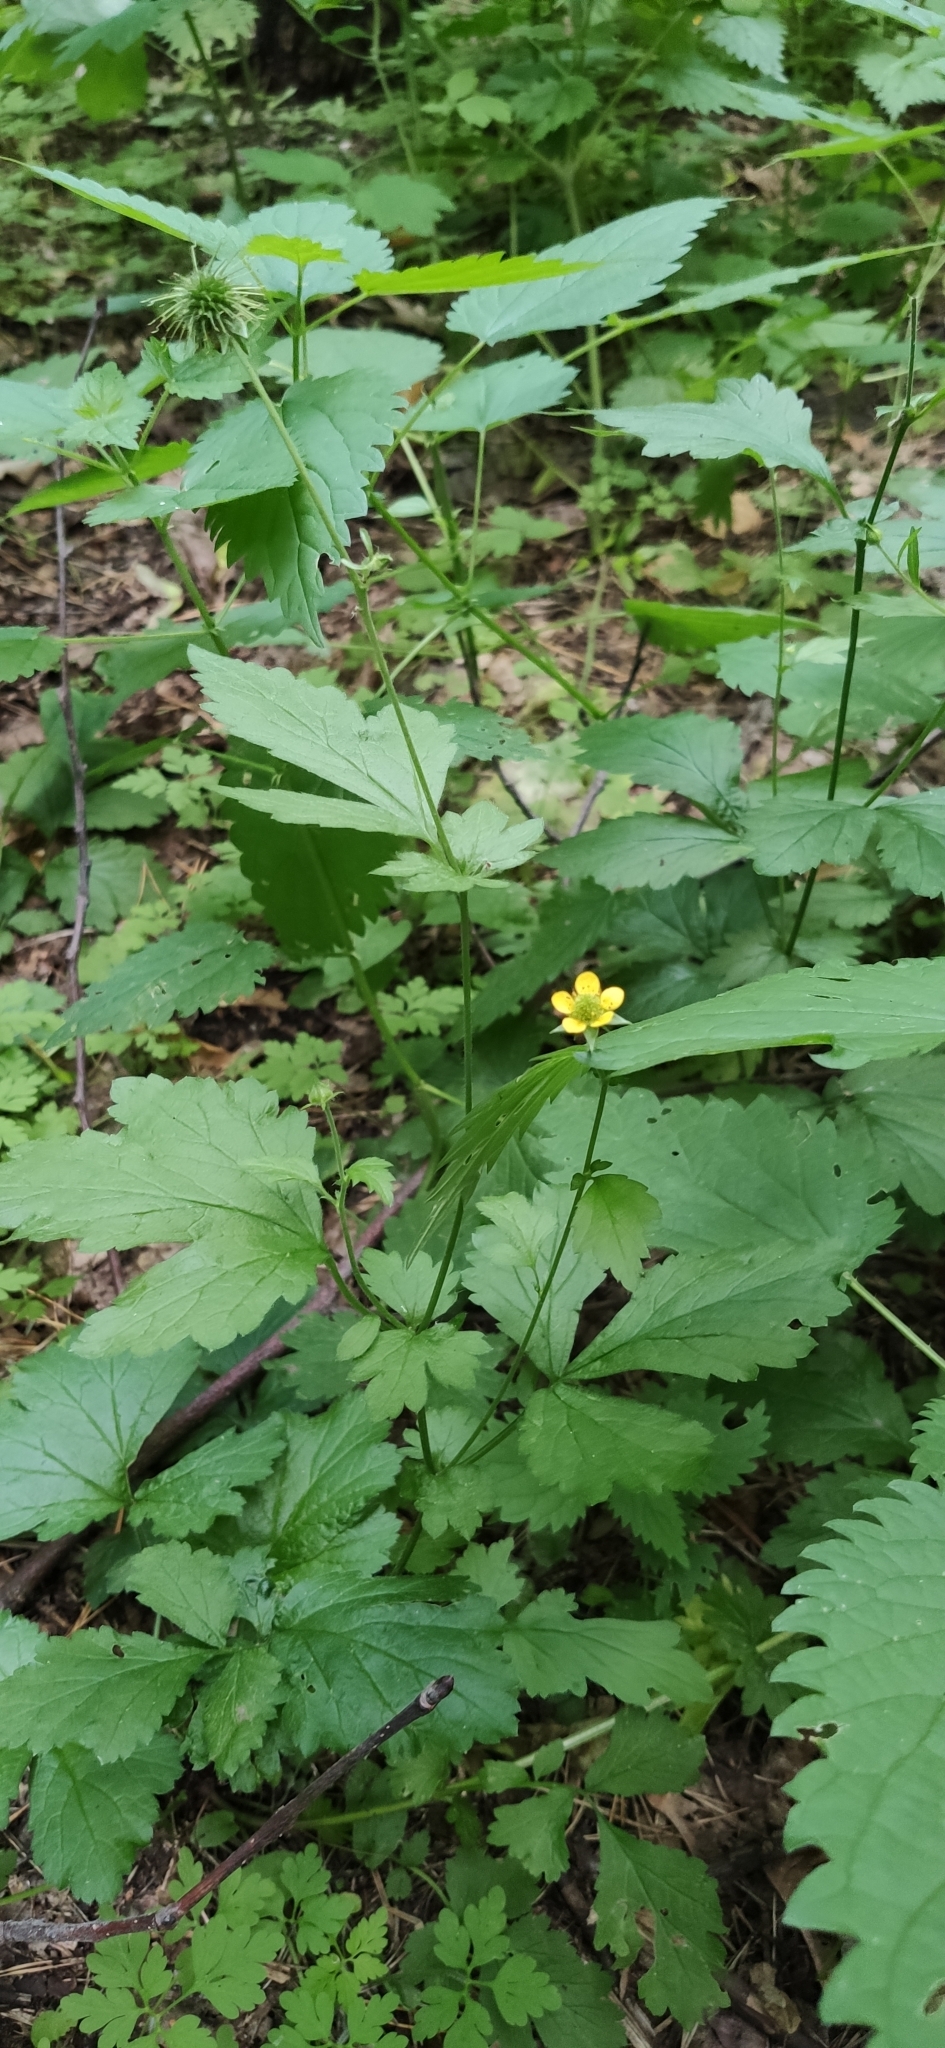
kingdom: Plantae
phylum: Tracheophyta
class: Magnoliopsida
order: Rosales
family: Rosaceae
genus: Geum
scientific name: Geum urbanum
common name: Wood avens
